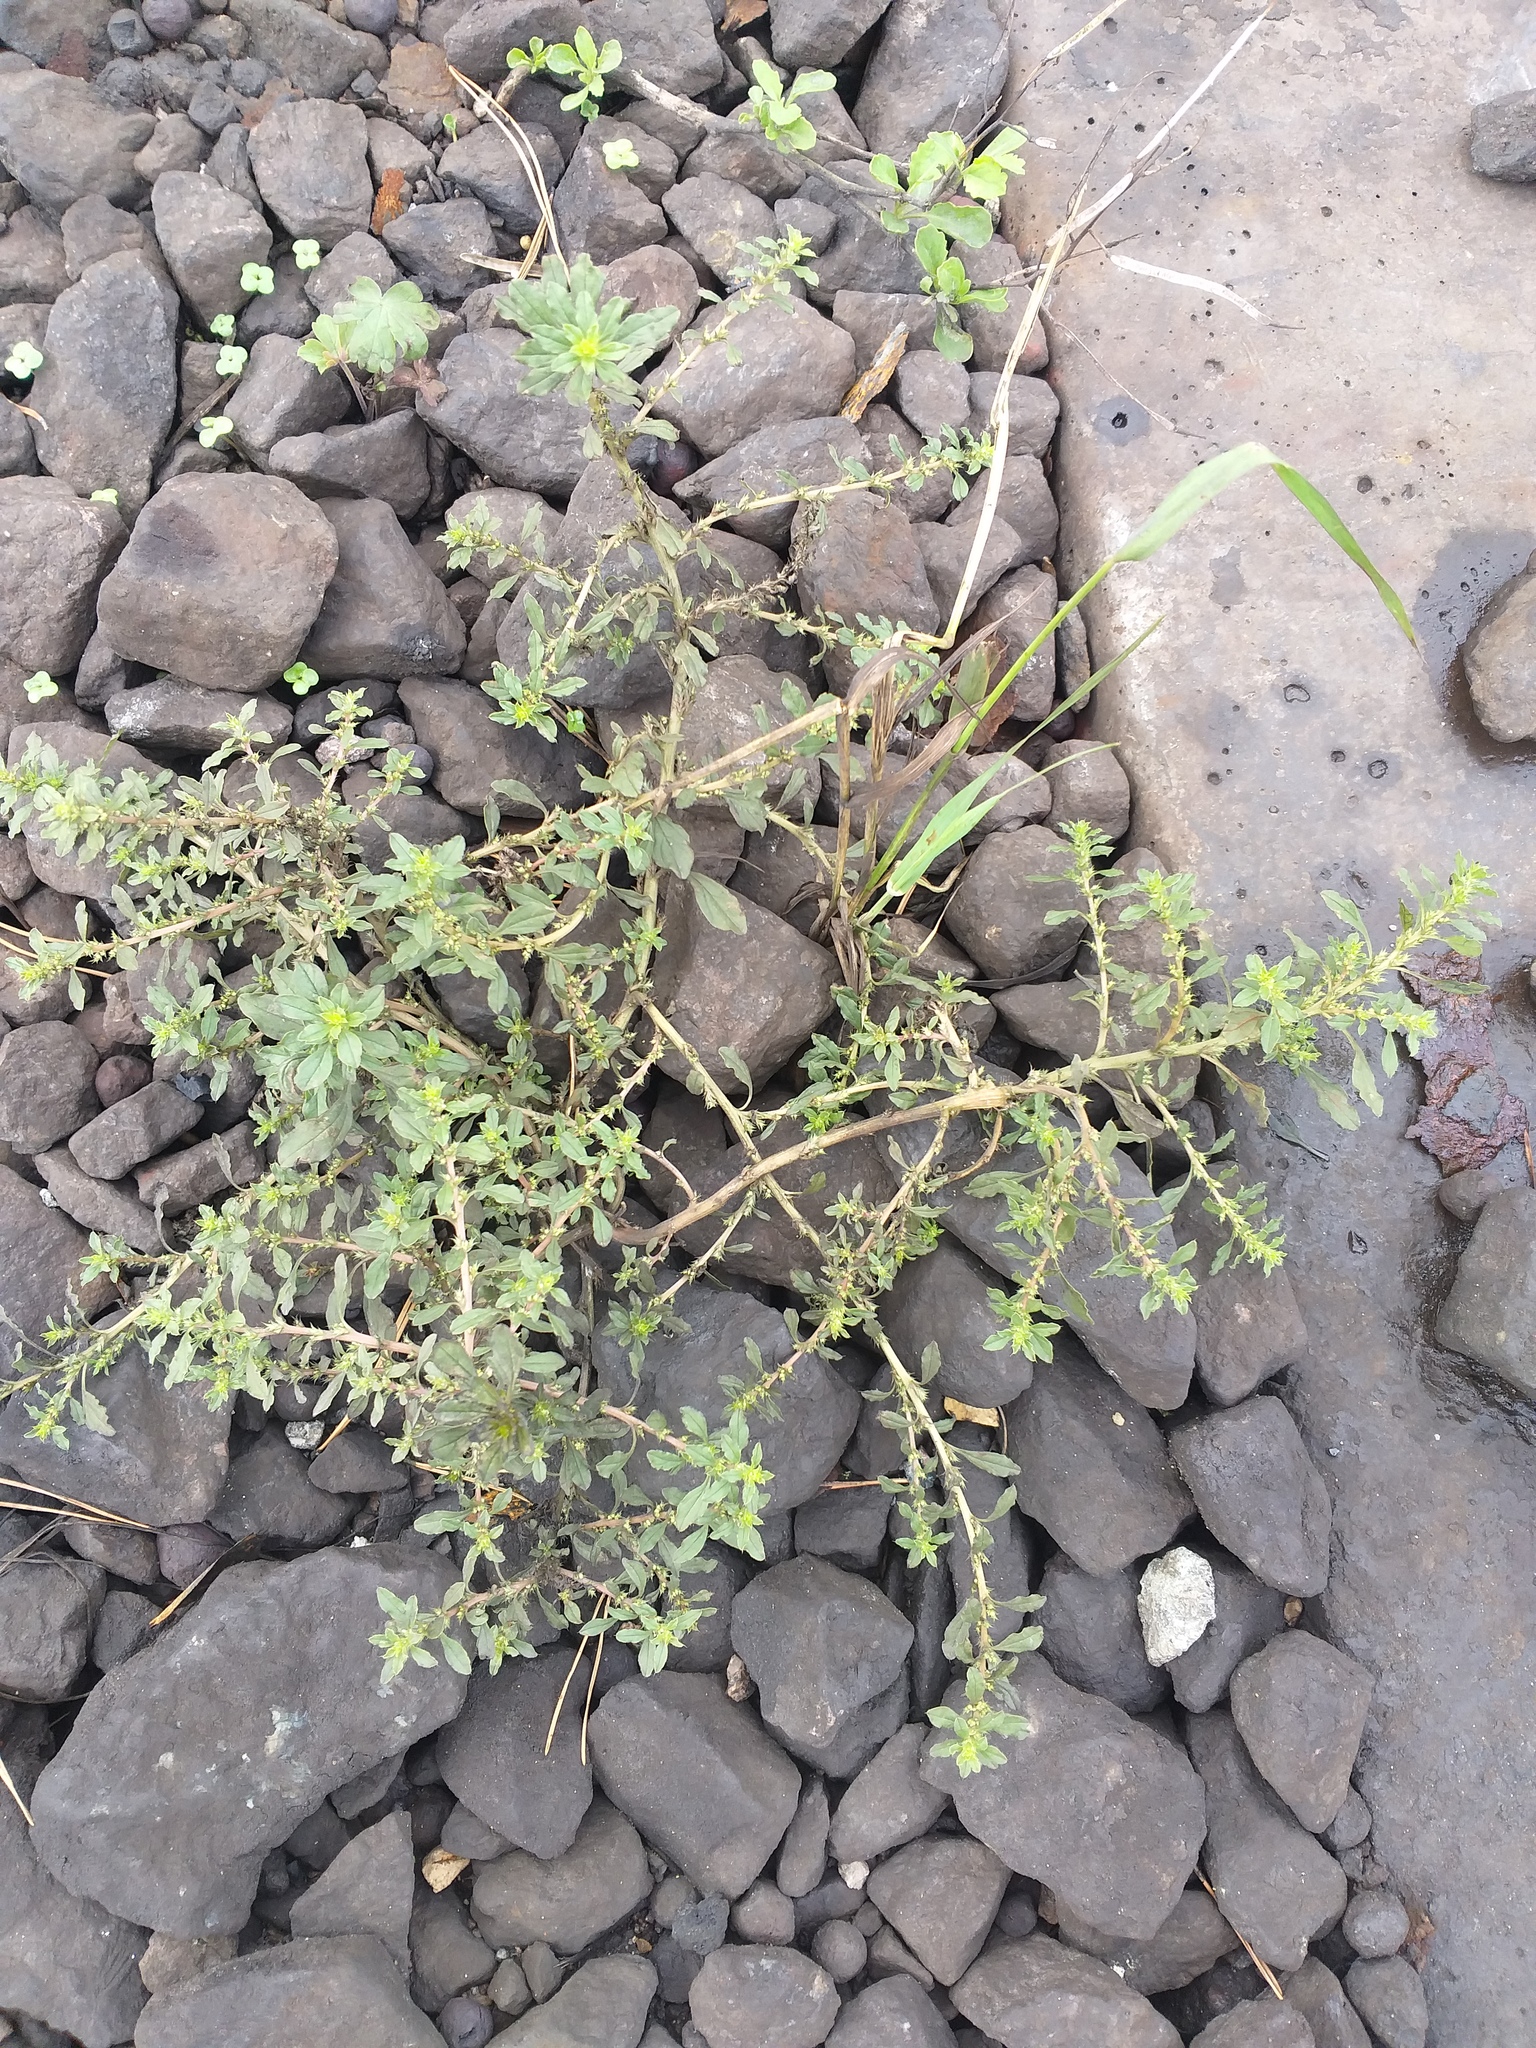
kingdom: Plantae
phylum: Tracheophyta
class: Magnoliopsida
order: Caryophyllales
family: Amaranthaceae
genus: Amaranthus
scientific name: Amaranthus albus
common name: White pigweed
